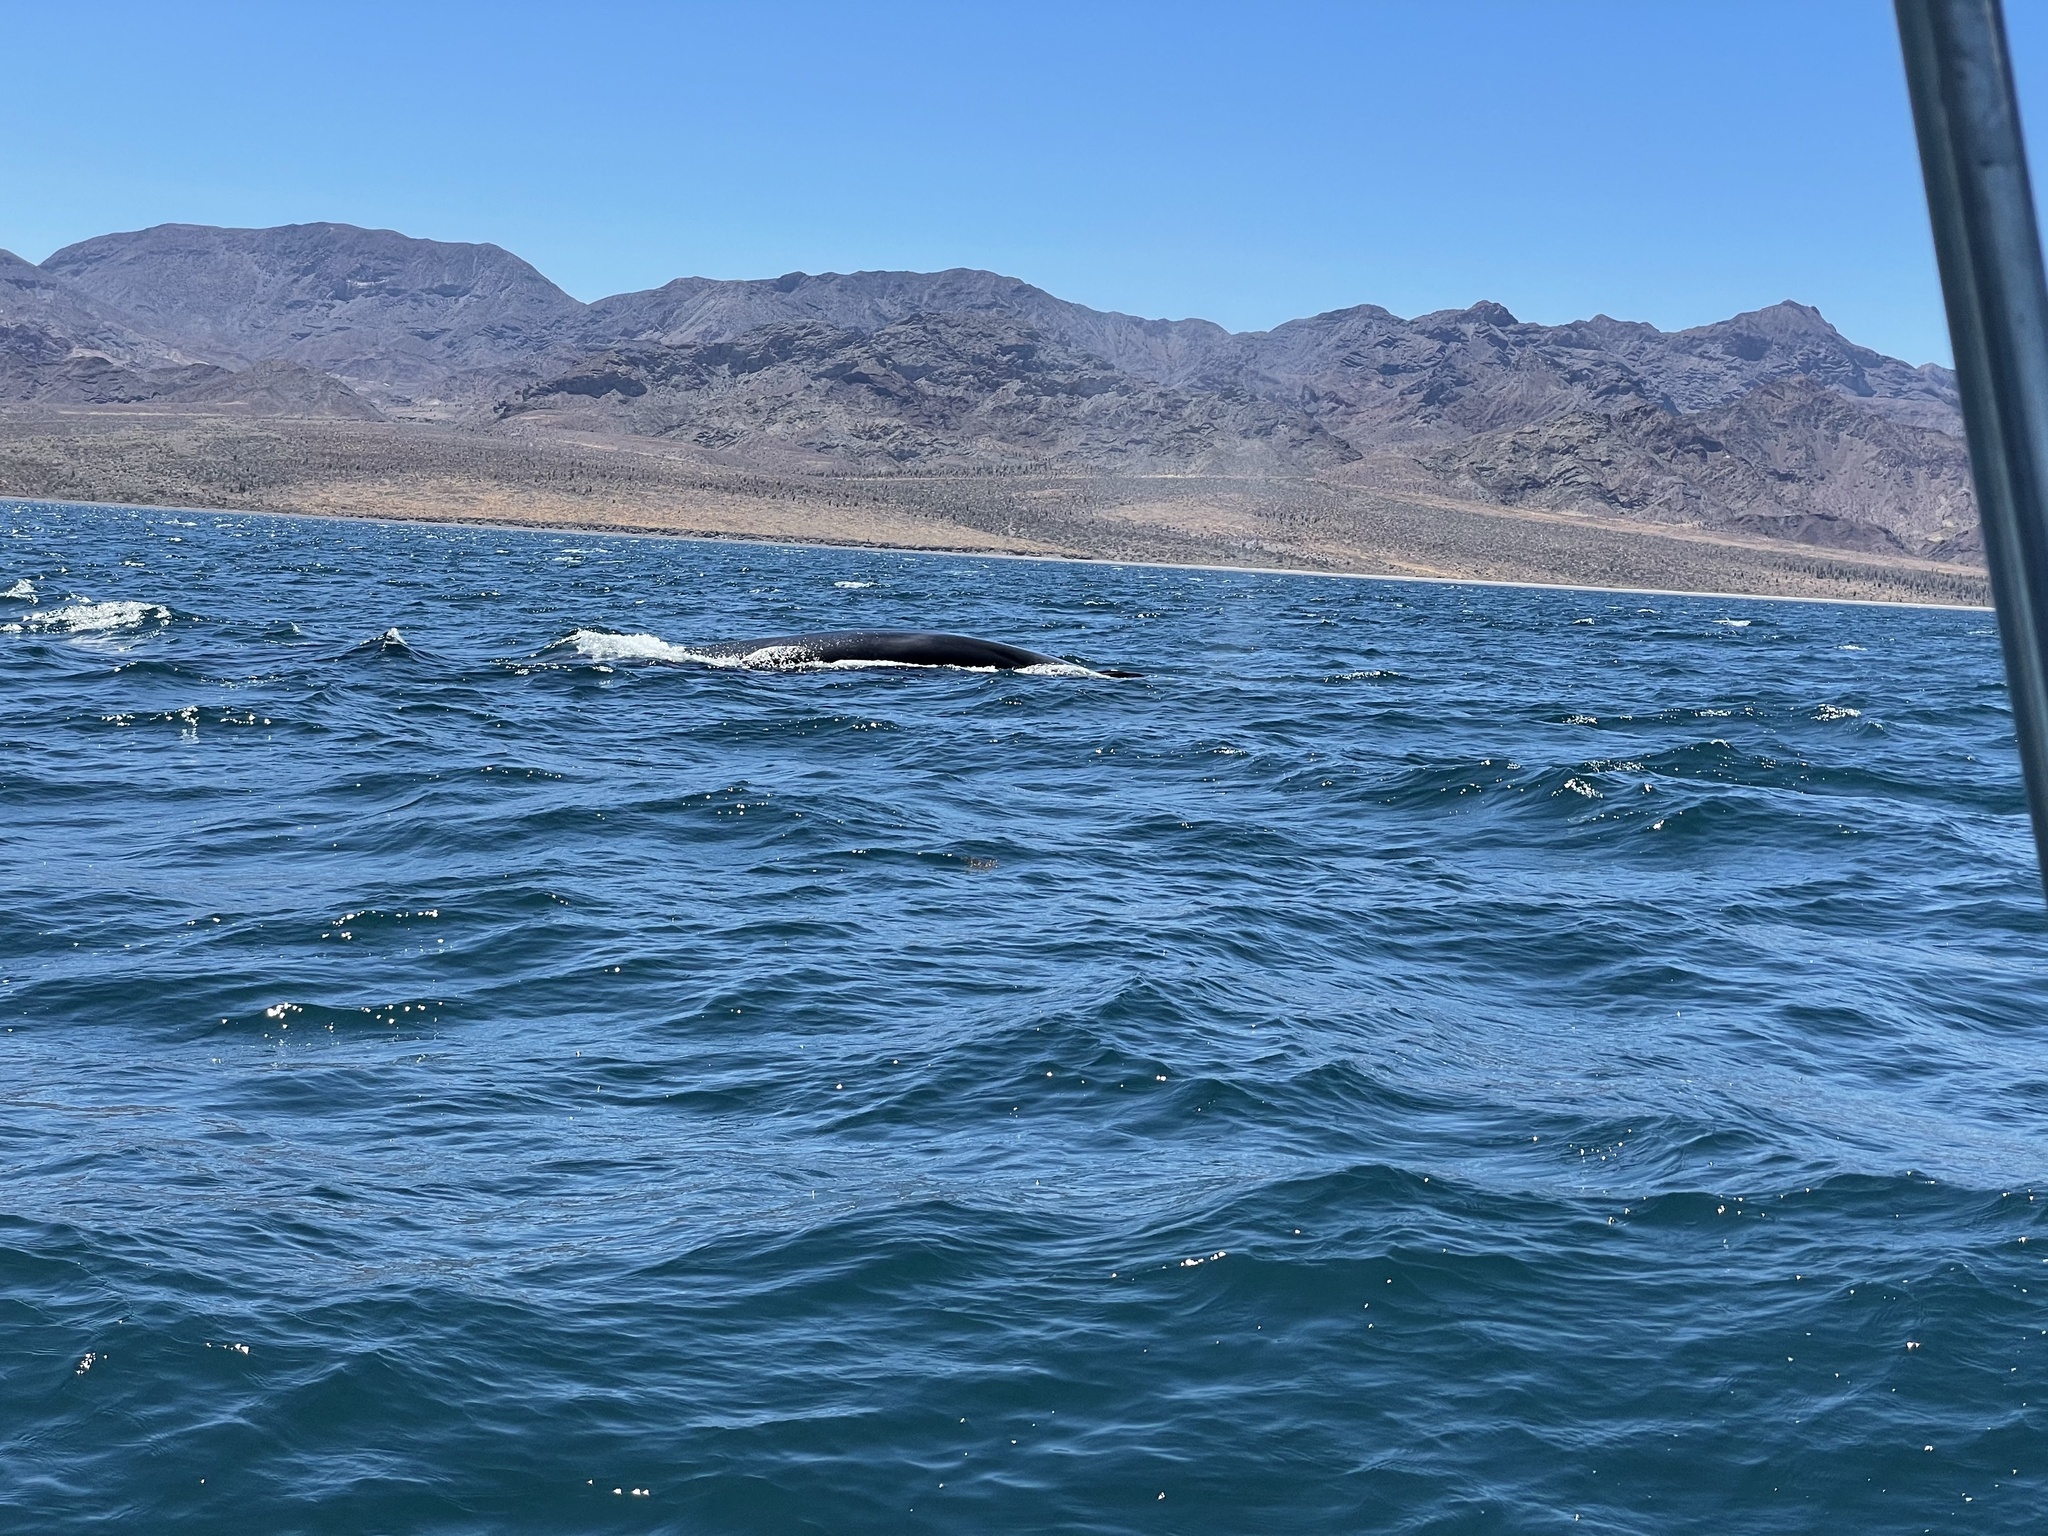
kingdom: Animalia
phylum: Chordata
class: Mammalia
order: Cetacea
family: Balaenopteridae
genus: Balaenoptera
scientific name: Balaenoptera physalus
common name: Fin whale
